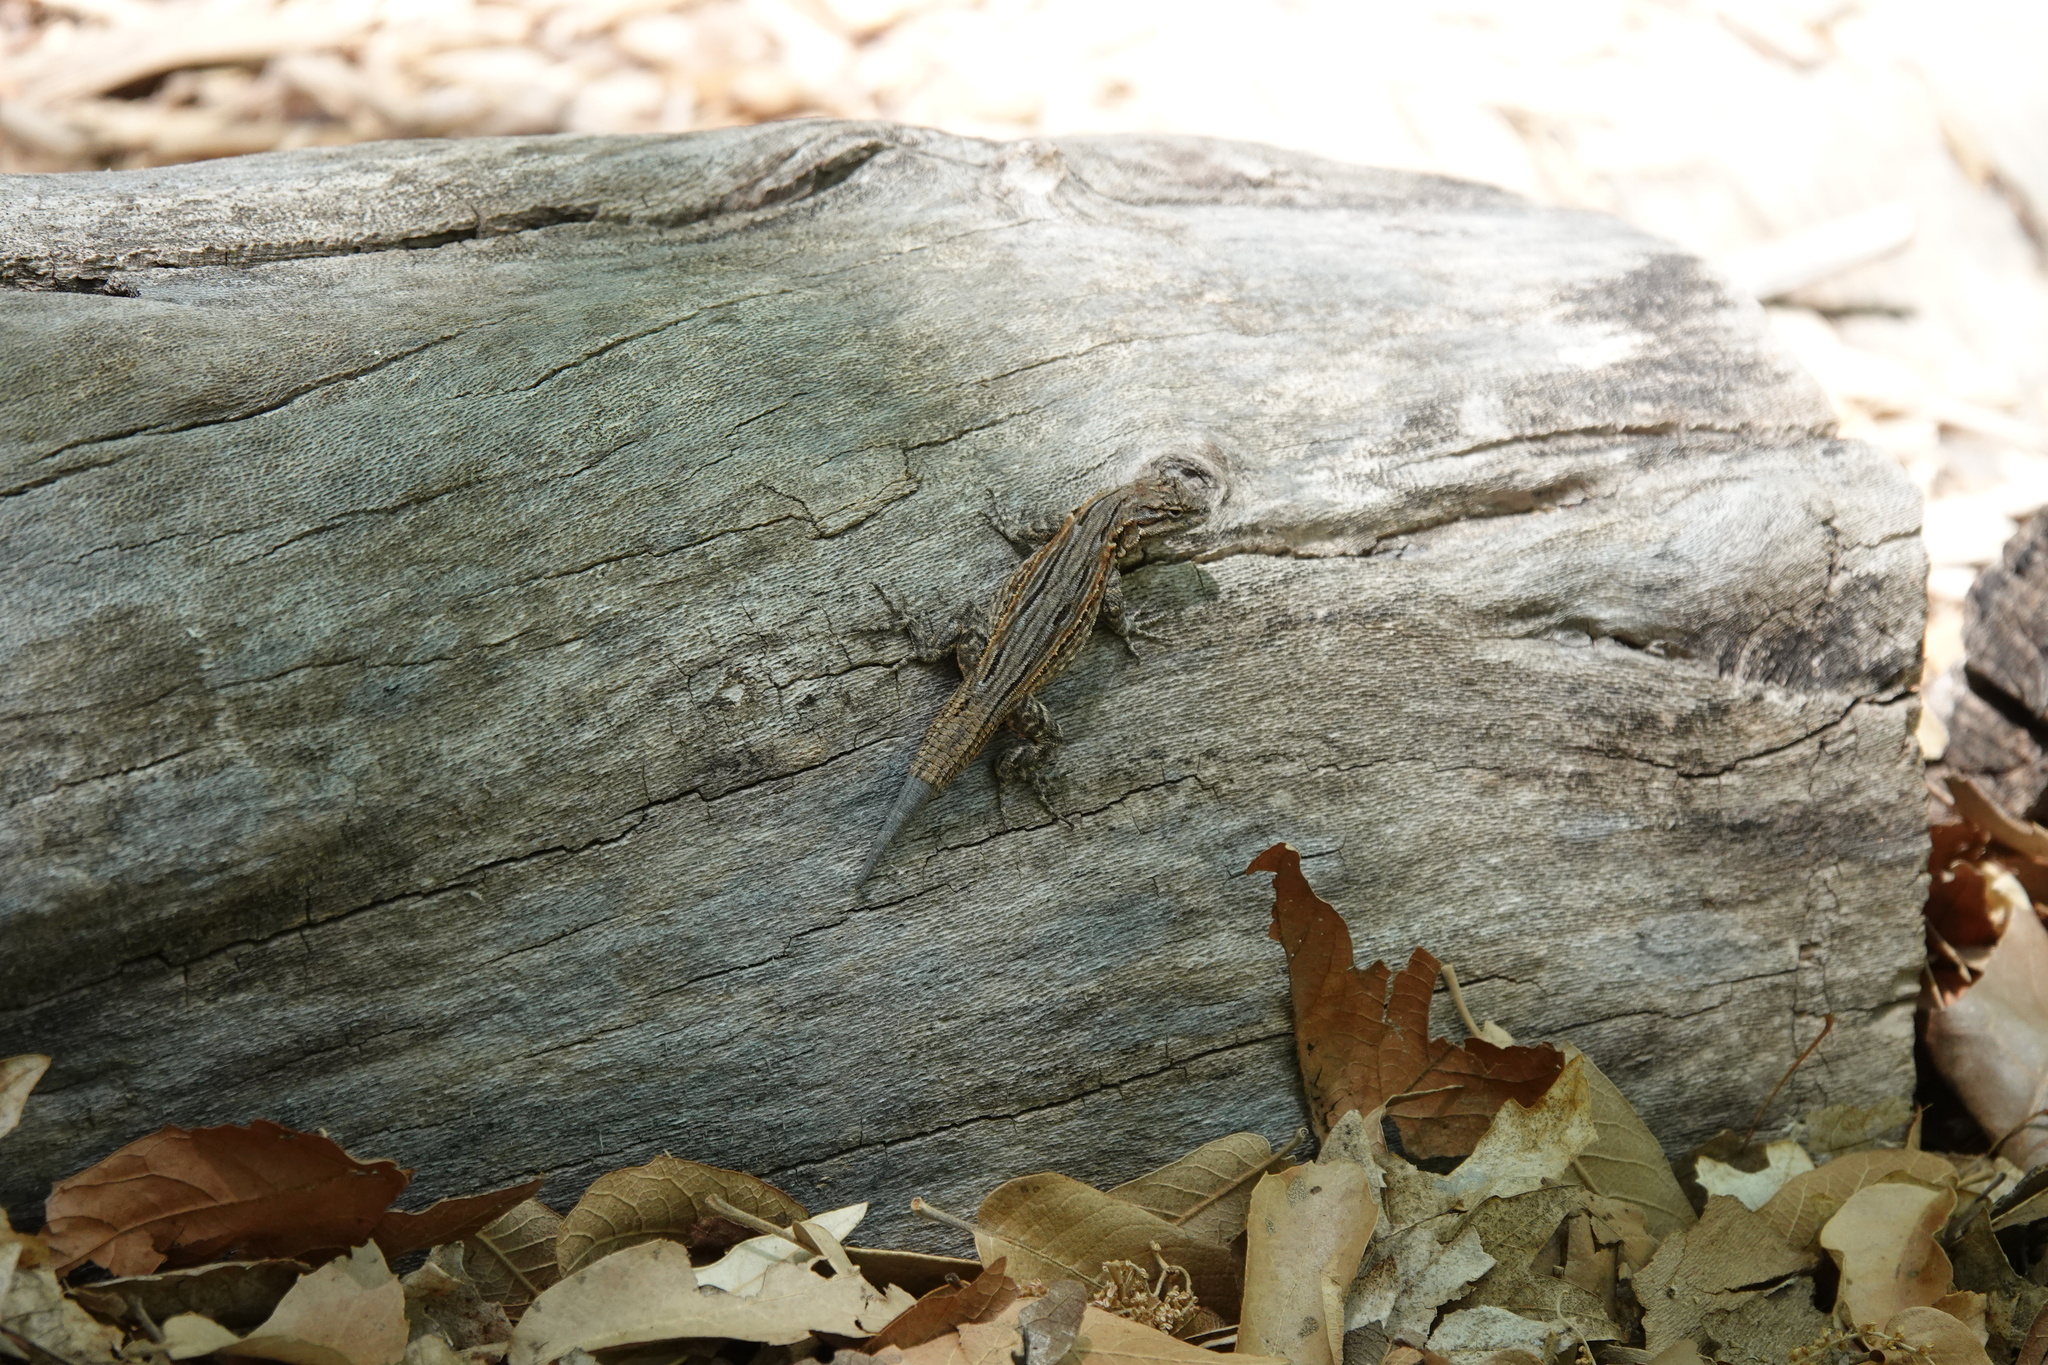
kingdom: Animalia
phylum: Chordata
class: Squamata
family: Phrynosomatidae
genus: Urosaurus
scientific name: Urosaurus ornatus
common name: Ornate tree lizard
